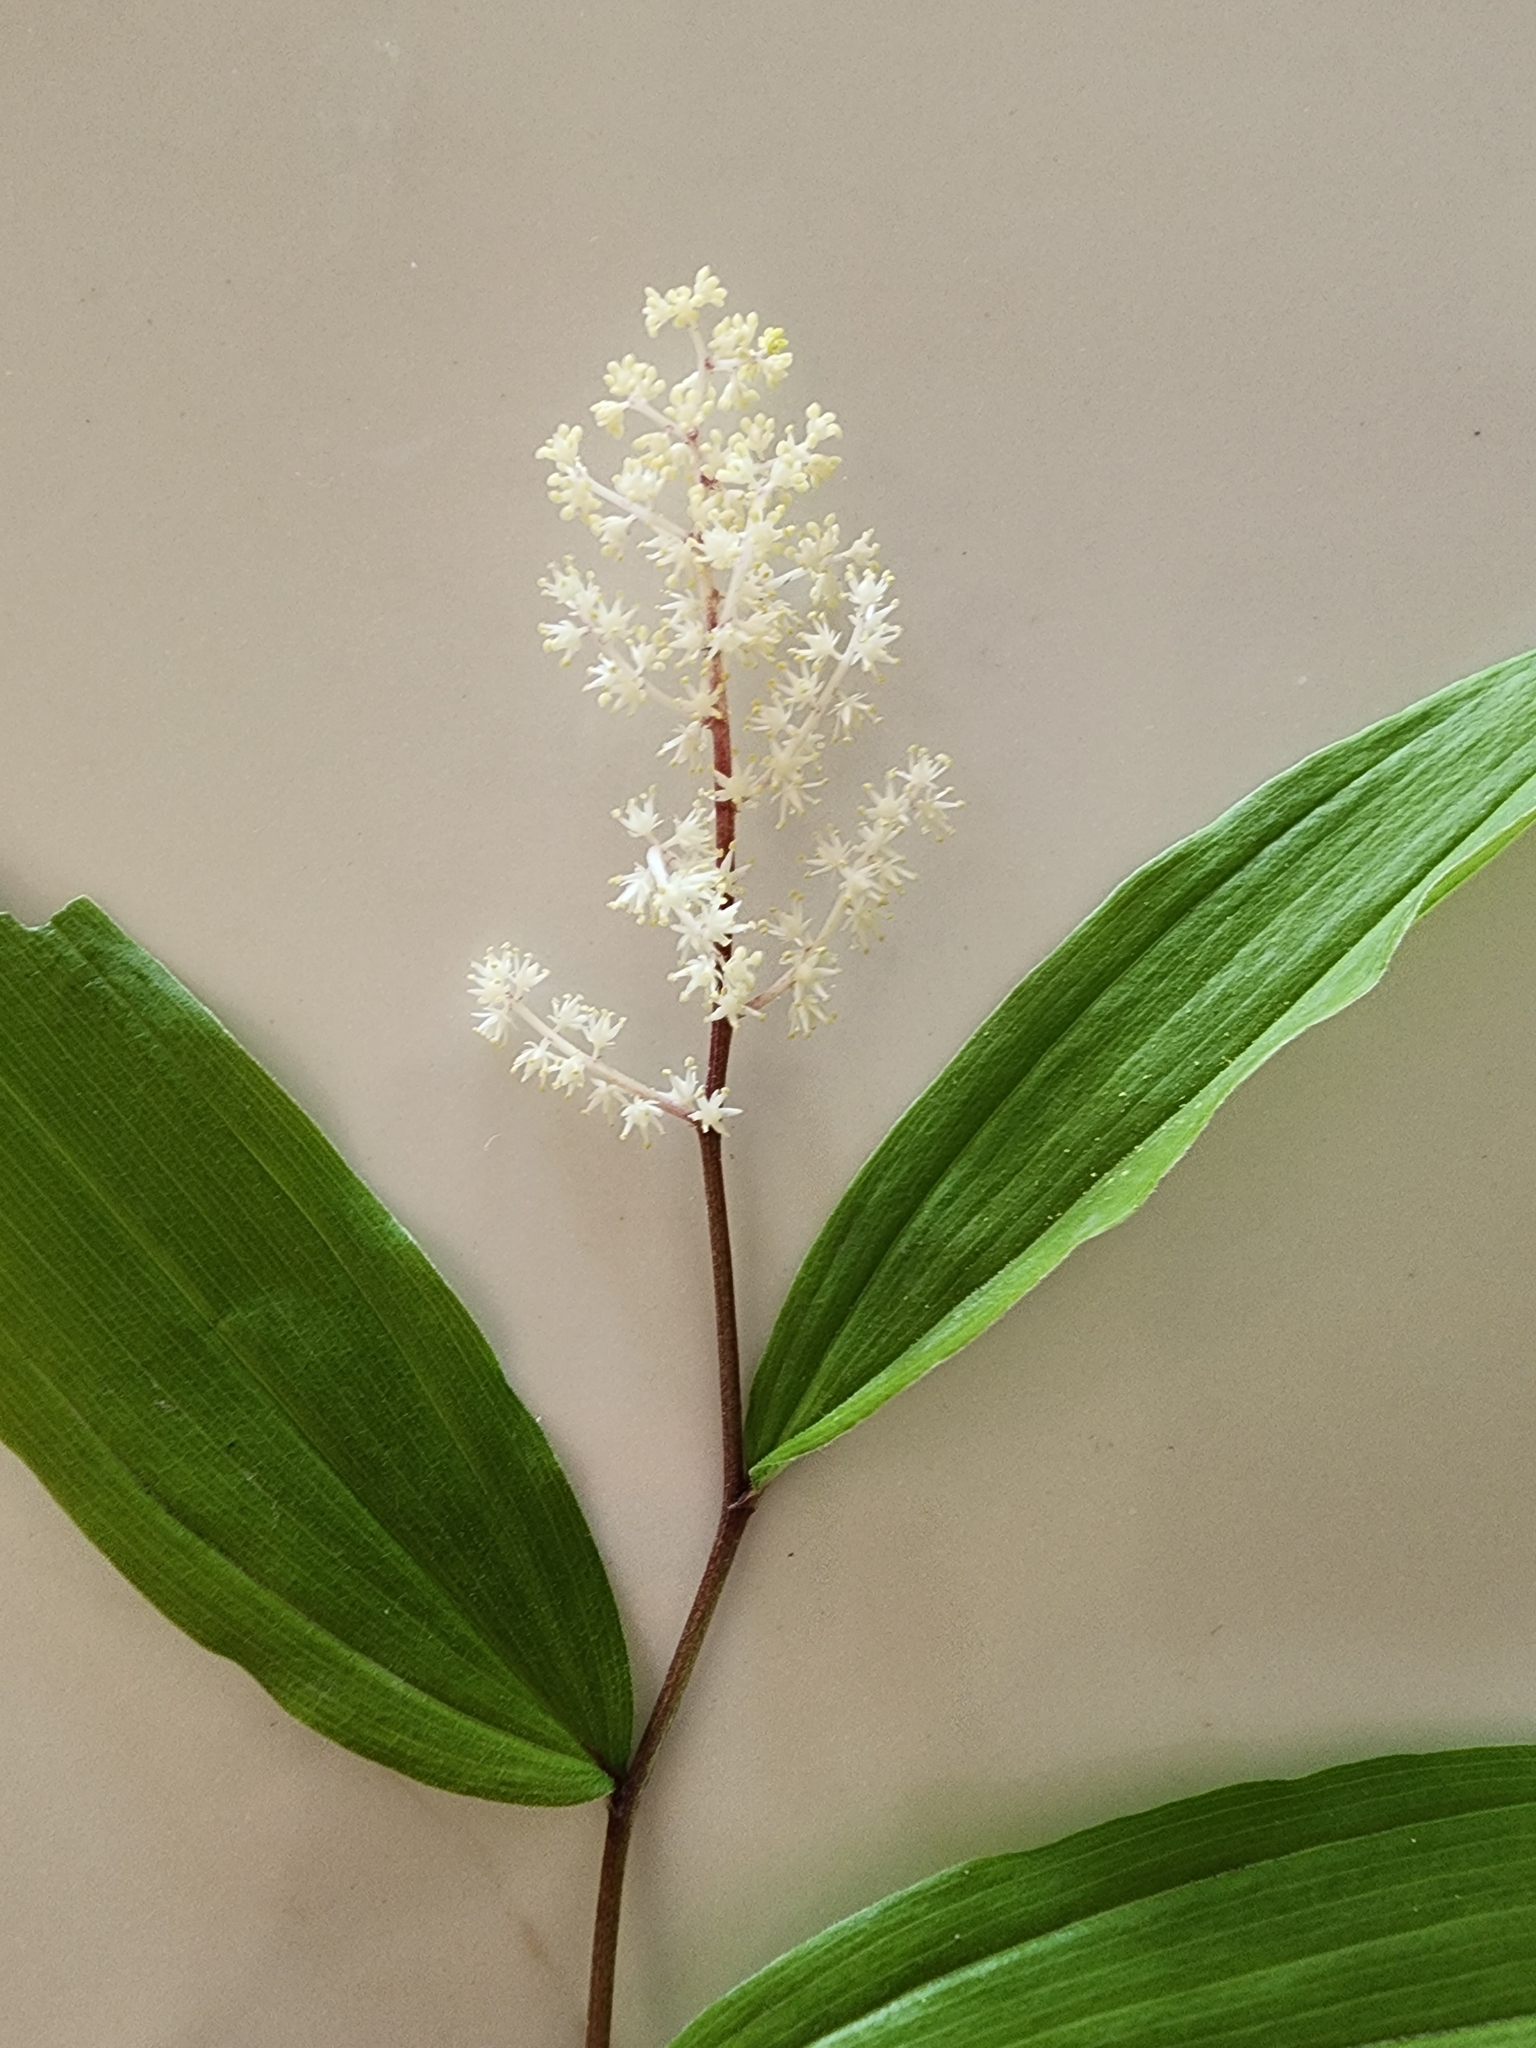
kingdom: Plantae
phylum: Tracheophyta
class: Liliopsida
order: Asparagales
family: Asparagaceae
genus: Maianthemum
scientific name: Maianthemum racemosum
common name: False spikenard
